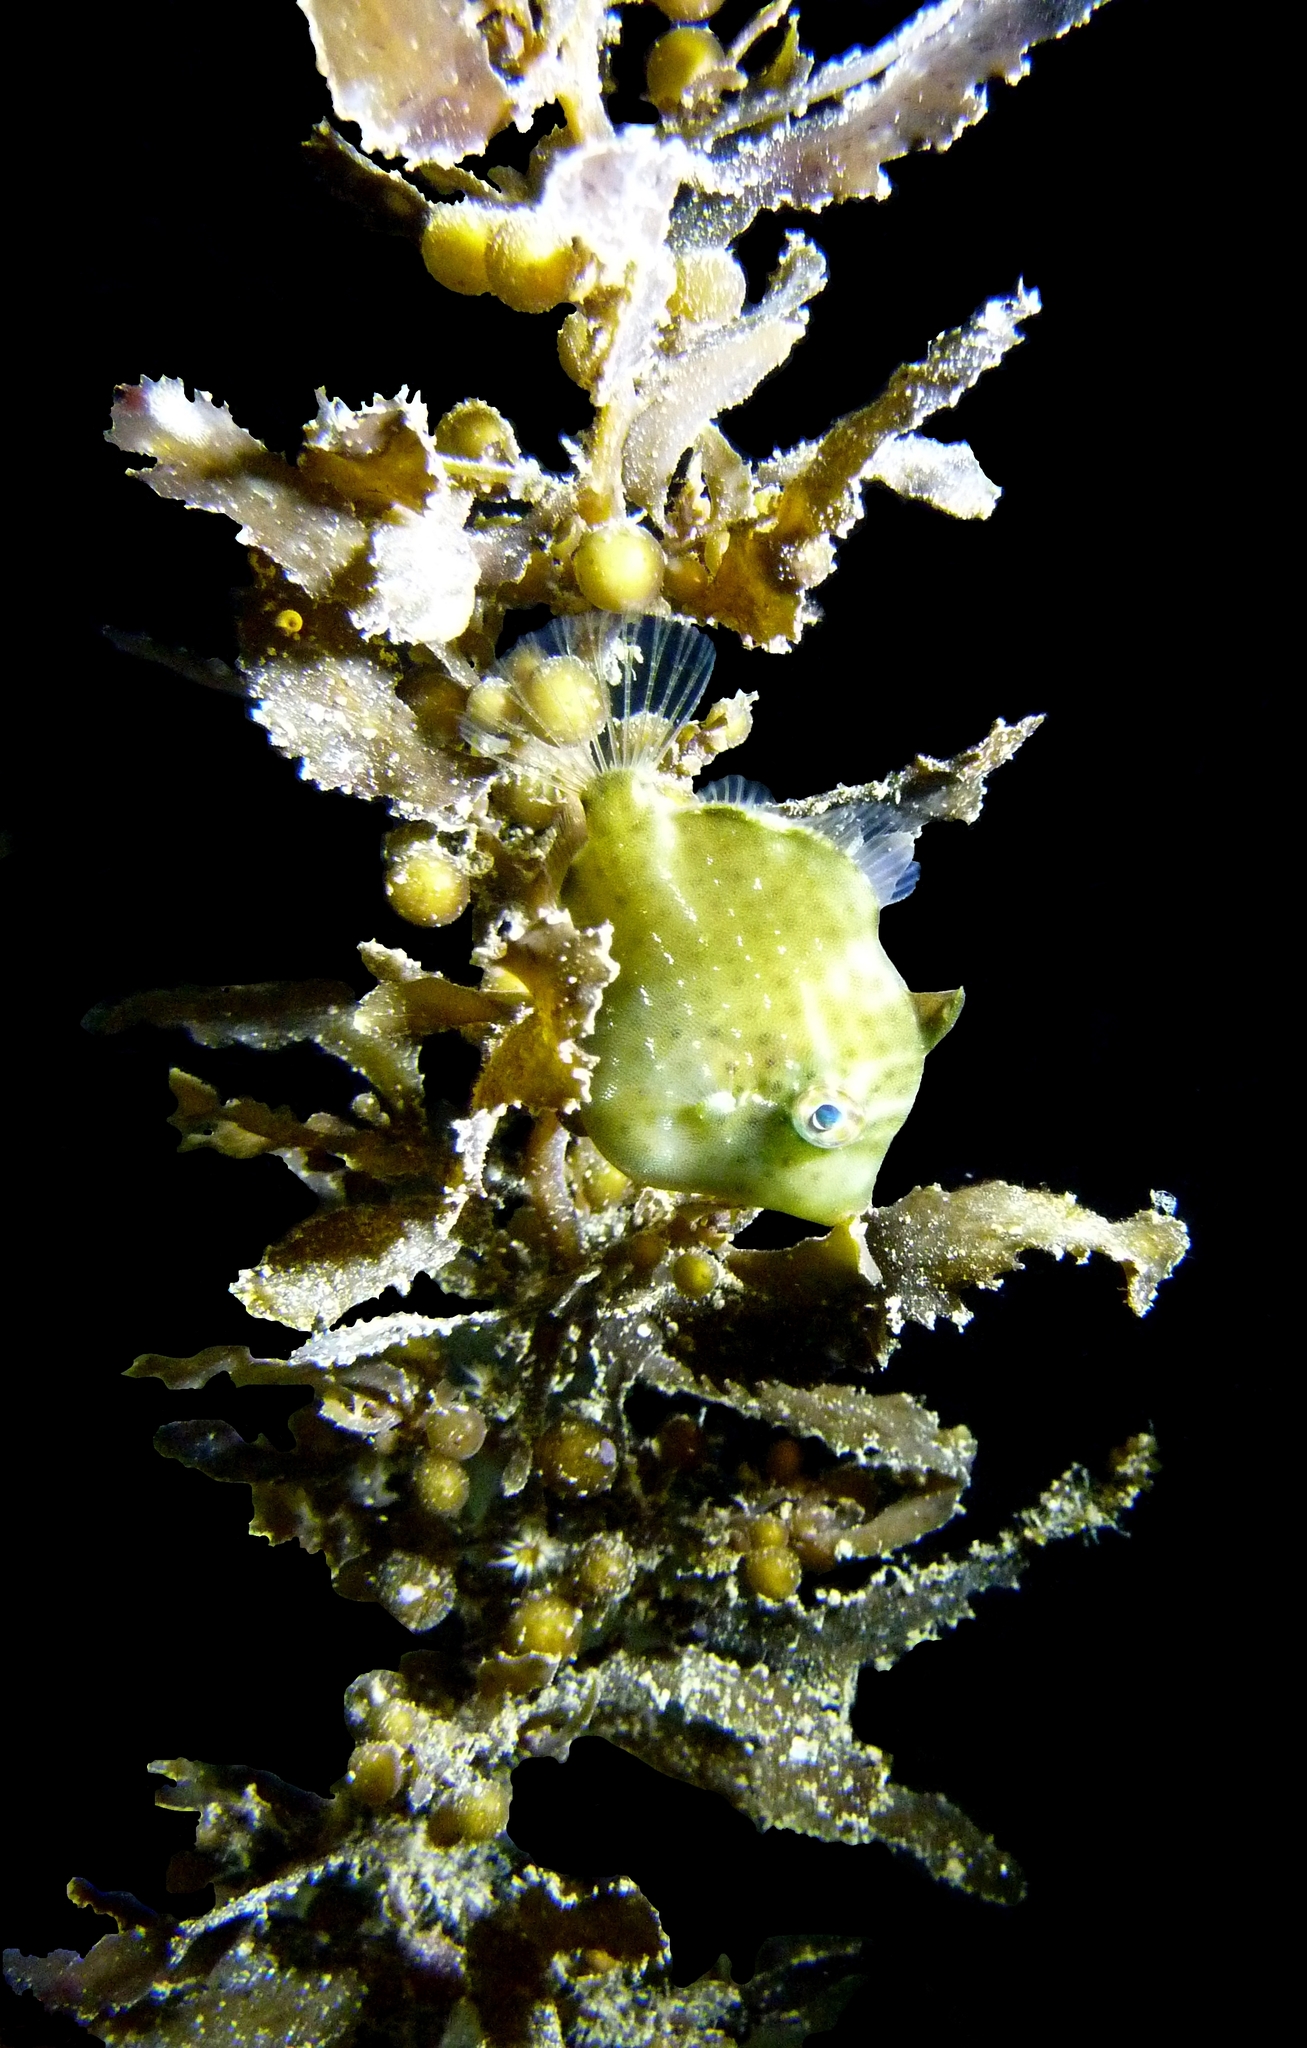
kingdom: Animalia
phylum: Chordata
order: Tetraodontiformes
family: Monacanthidae
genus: Brachaluteres
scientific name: Brachaluteres jacksonianus
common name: Pigmy leatherjacket
